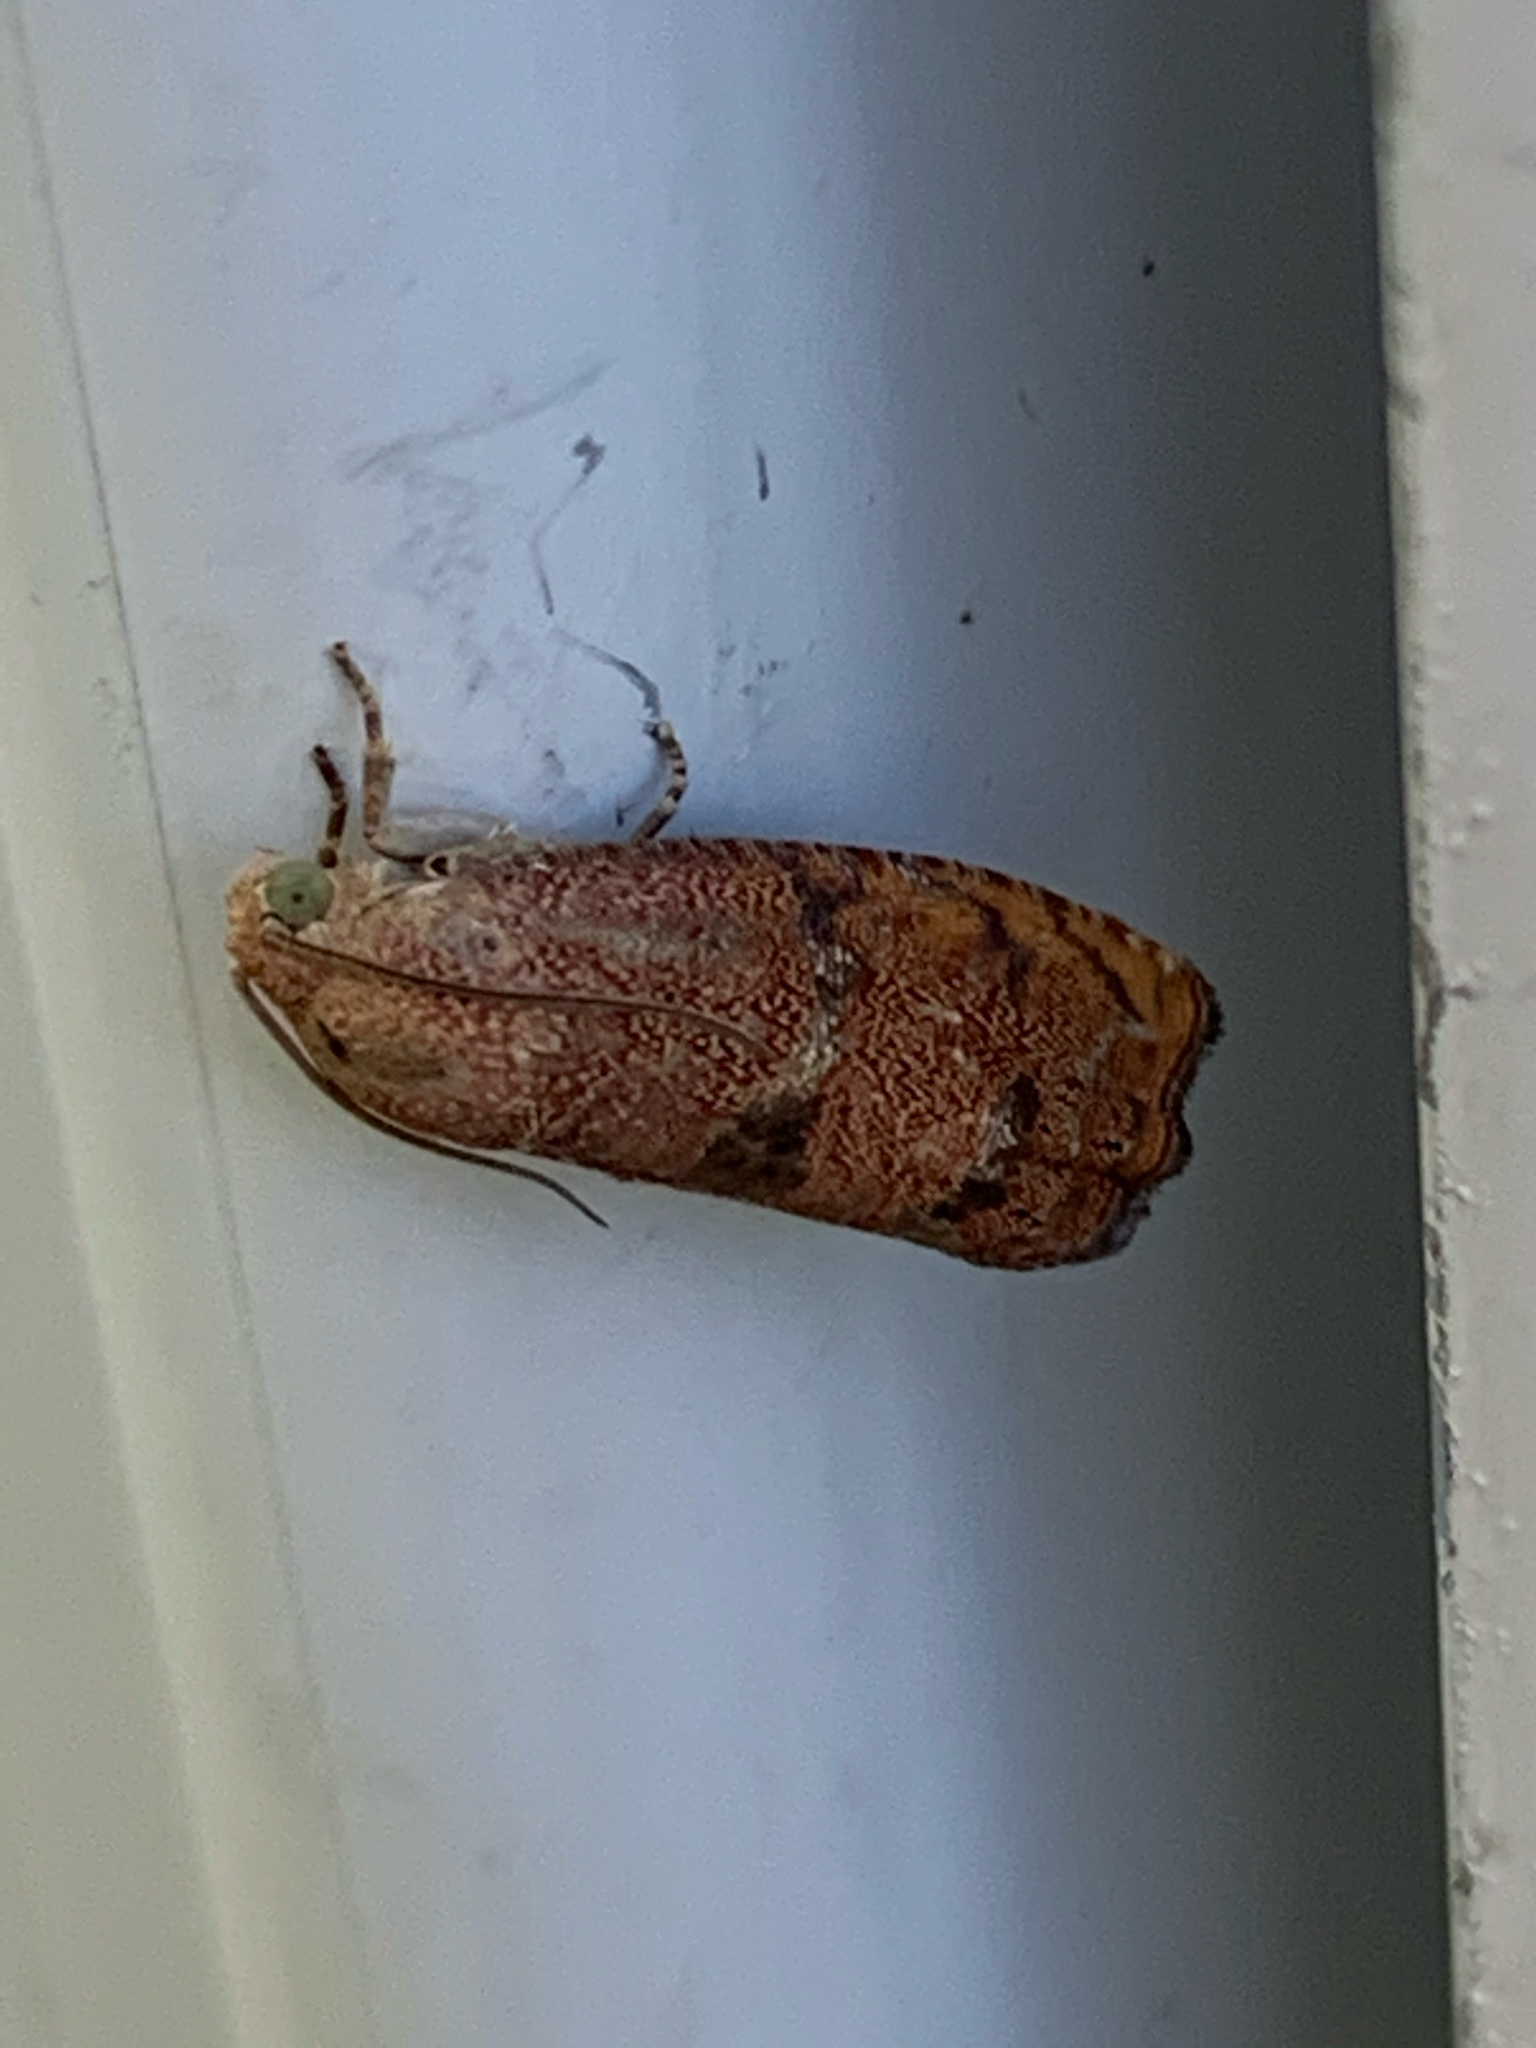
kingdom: Animalia
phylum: Arthropoda
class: Insecta
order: Lepidoptera
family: Tortricidae
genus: Cydia
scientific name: Cydia latiferreana
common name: Filbertworm moth
